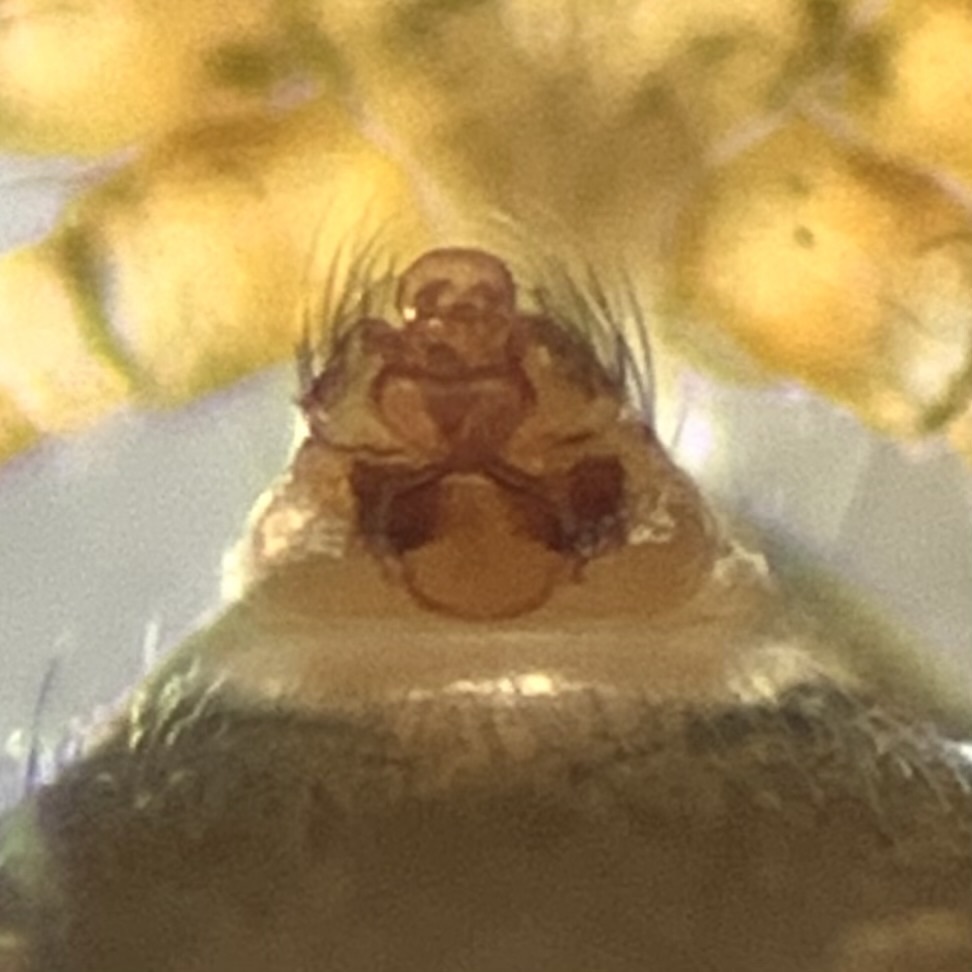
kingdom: Animalia
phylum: Arthropoda
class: Arachnida
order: Araneae
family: Linyphiidae
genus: Palliduphantes
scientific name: Palliduphantes pallidus
